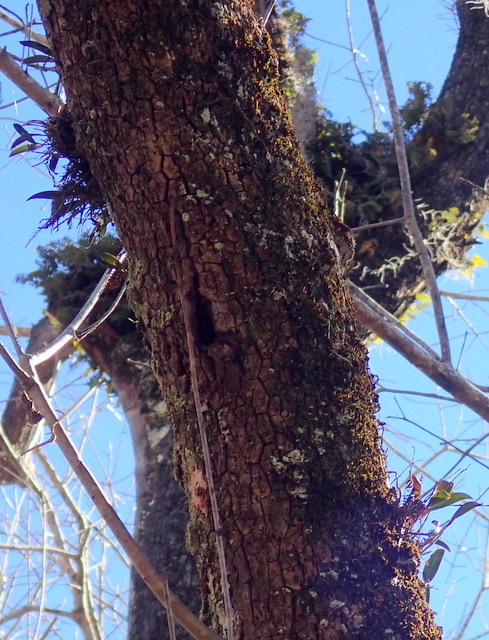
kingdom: Plantae
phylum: Tracheophyta
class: Liliopsida
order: Asparagales
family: Orchidaceae
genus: Epidendrum
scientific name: Epidendrum conopseum
